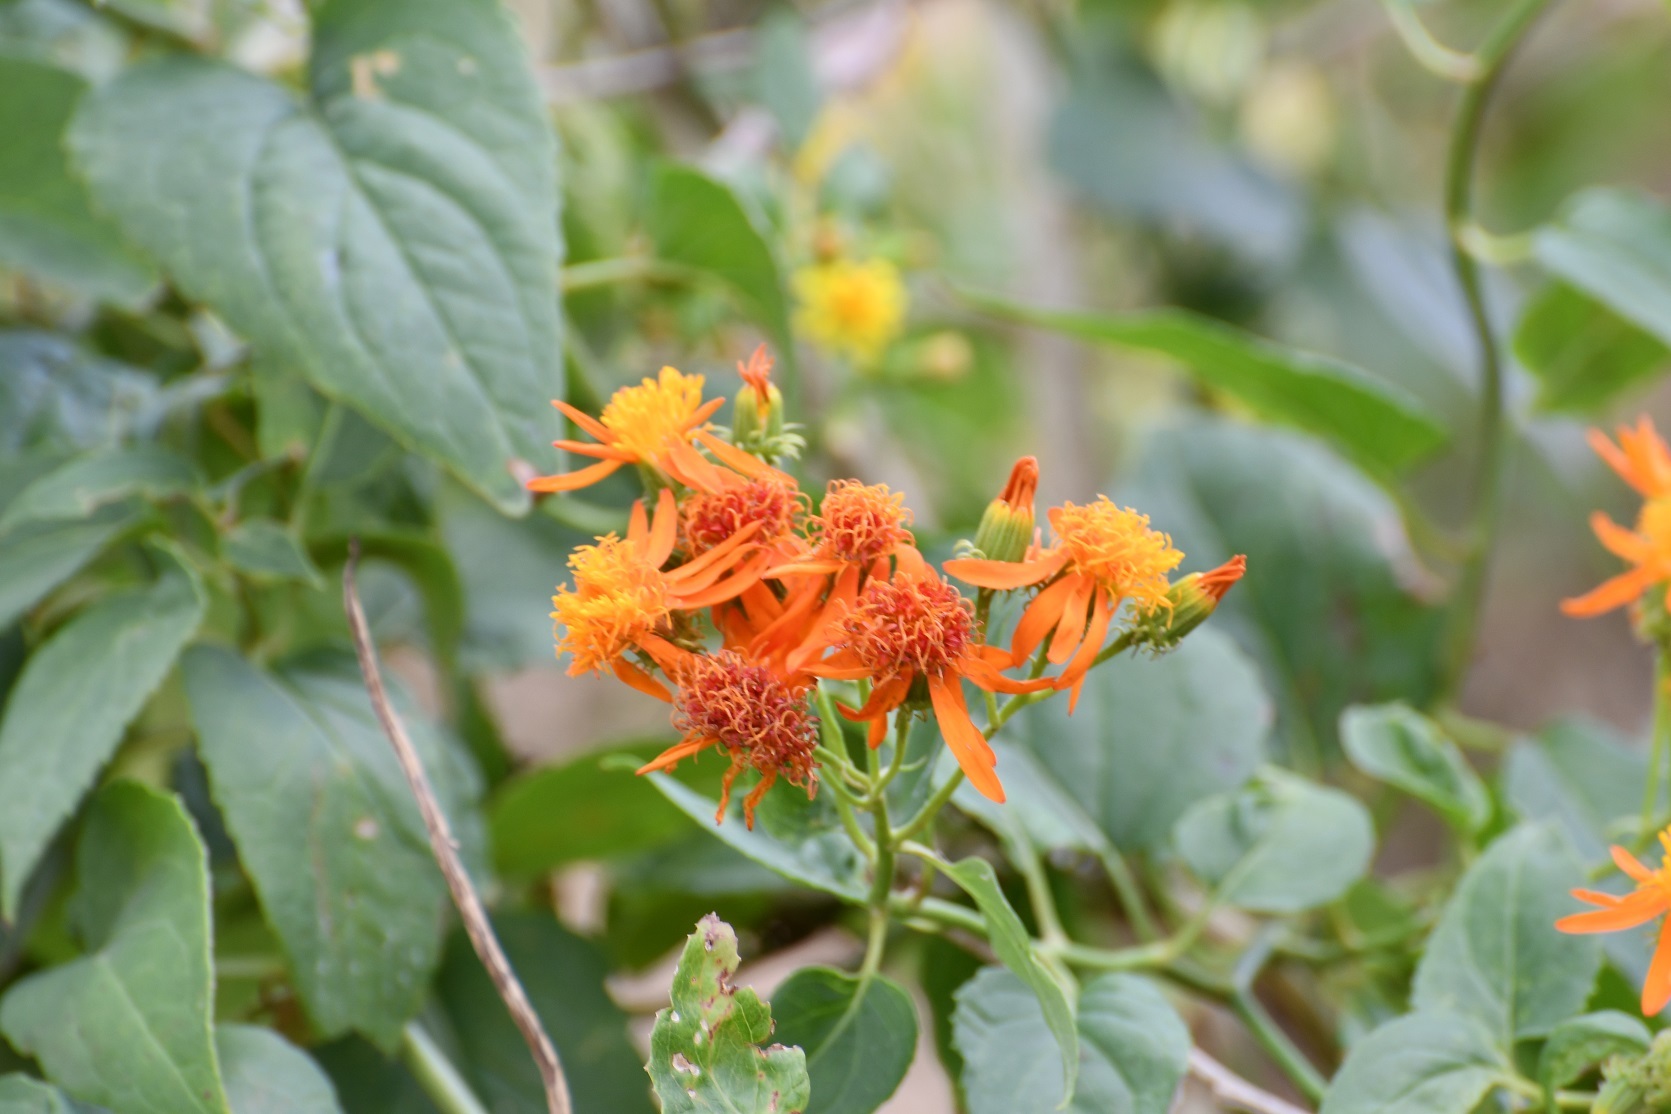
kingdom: Plantae
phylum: Tracheophyta
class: Magnoliopsida
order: Asterales
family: Asteraceae
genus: Pseudogynoxys
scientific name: Pseudogynoxys haenkei
